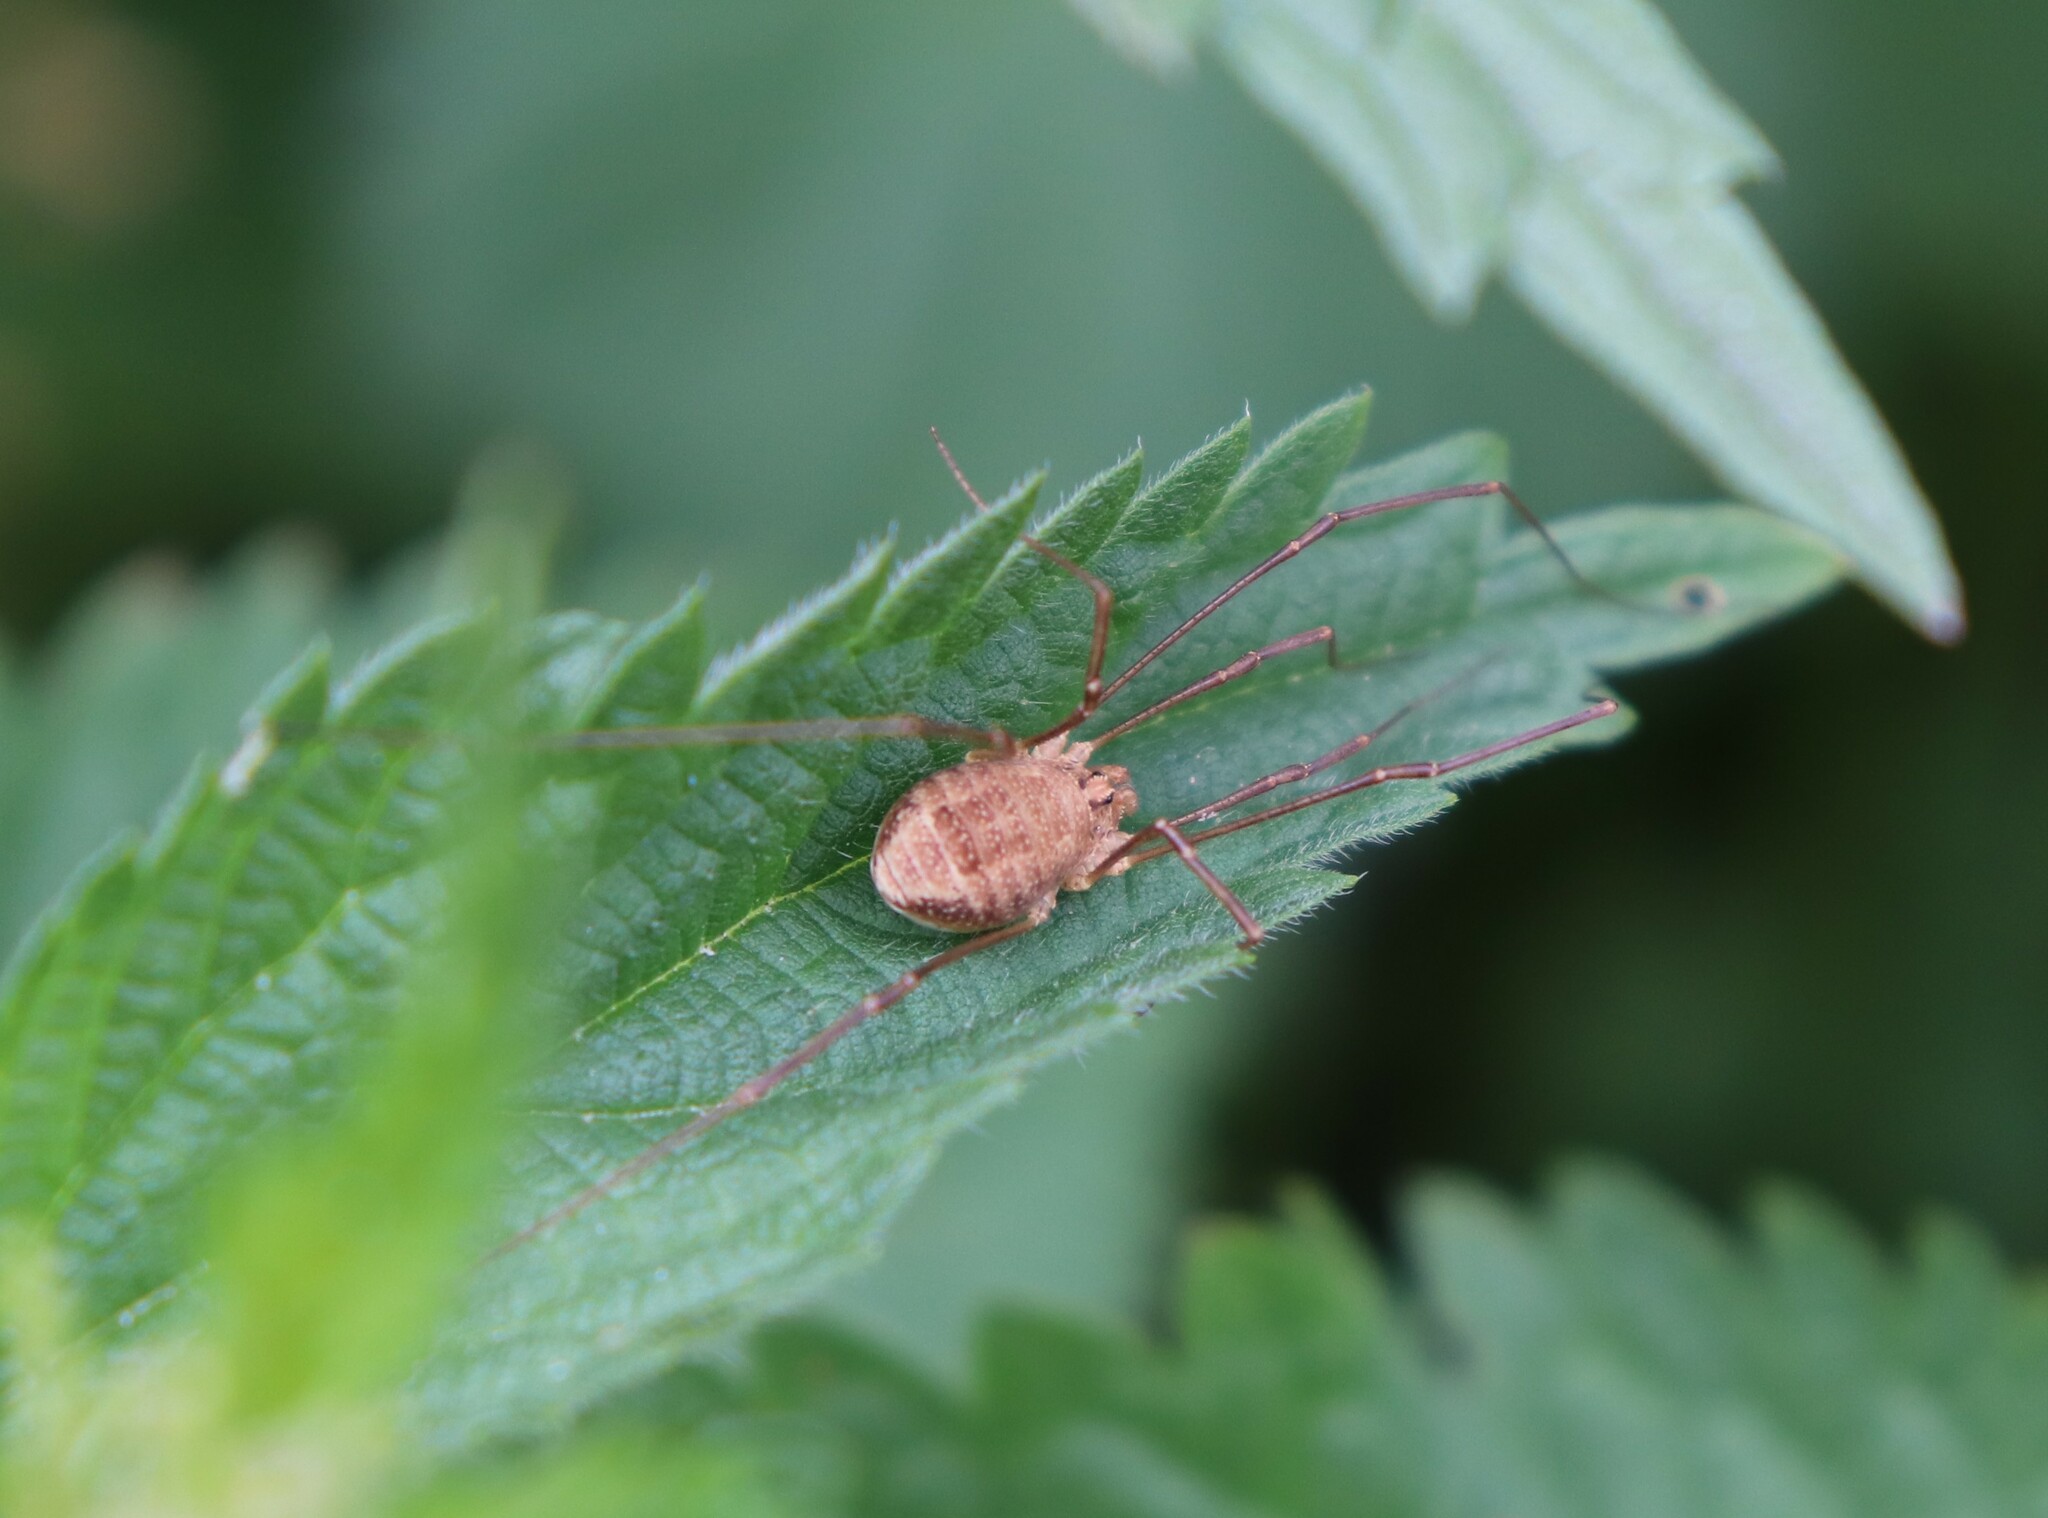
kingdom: Animalia
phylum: Arthropoda
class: Arachnida
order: Opiliones
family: Phalangiidae
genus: Rilaena
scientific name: Rilaena triangularis
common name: Spring harvestman
